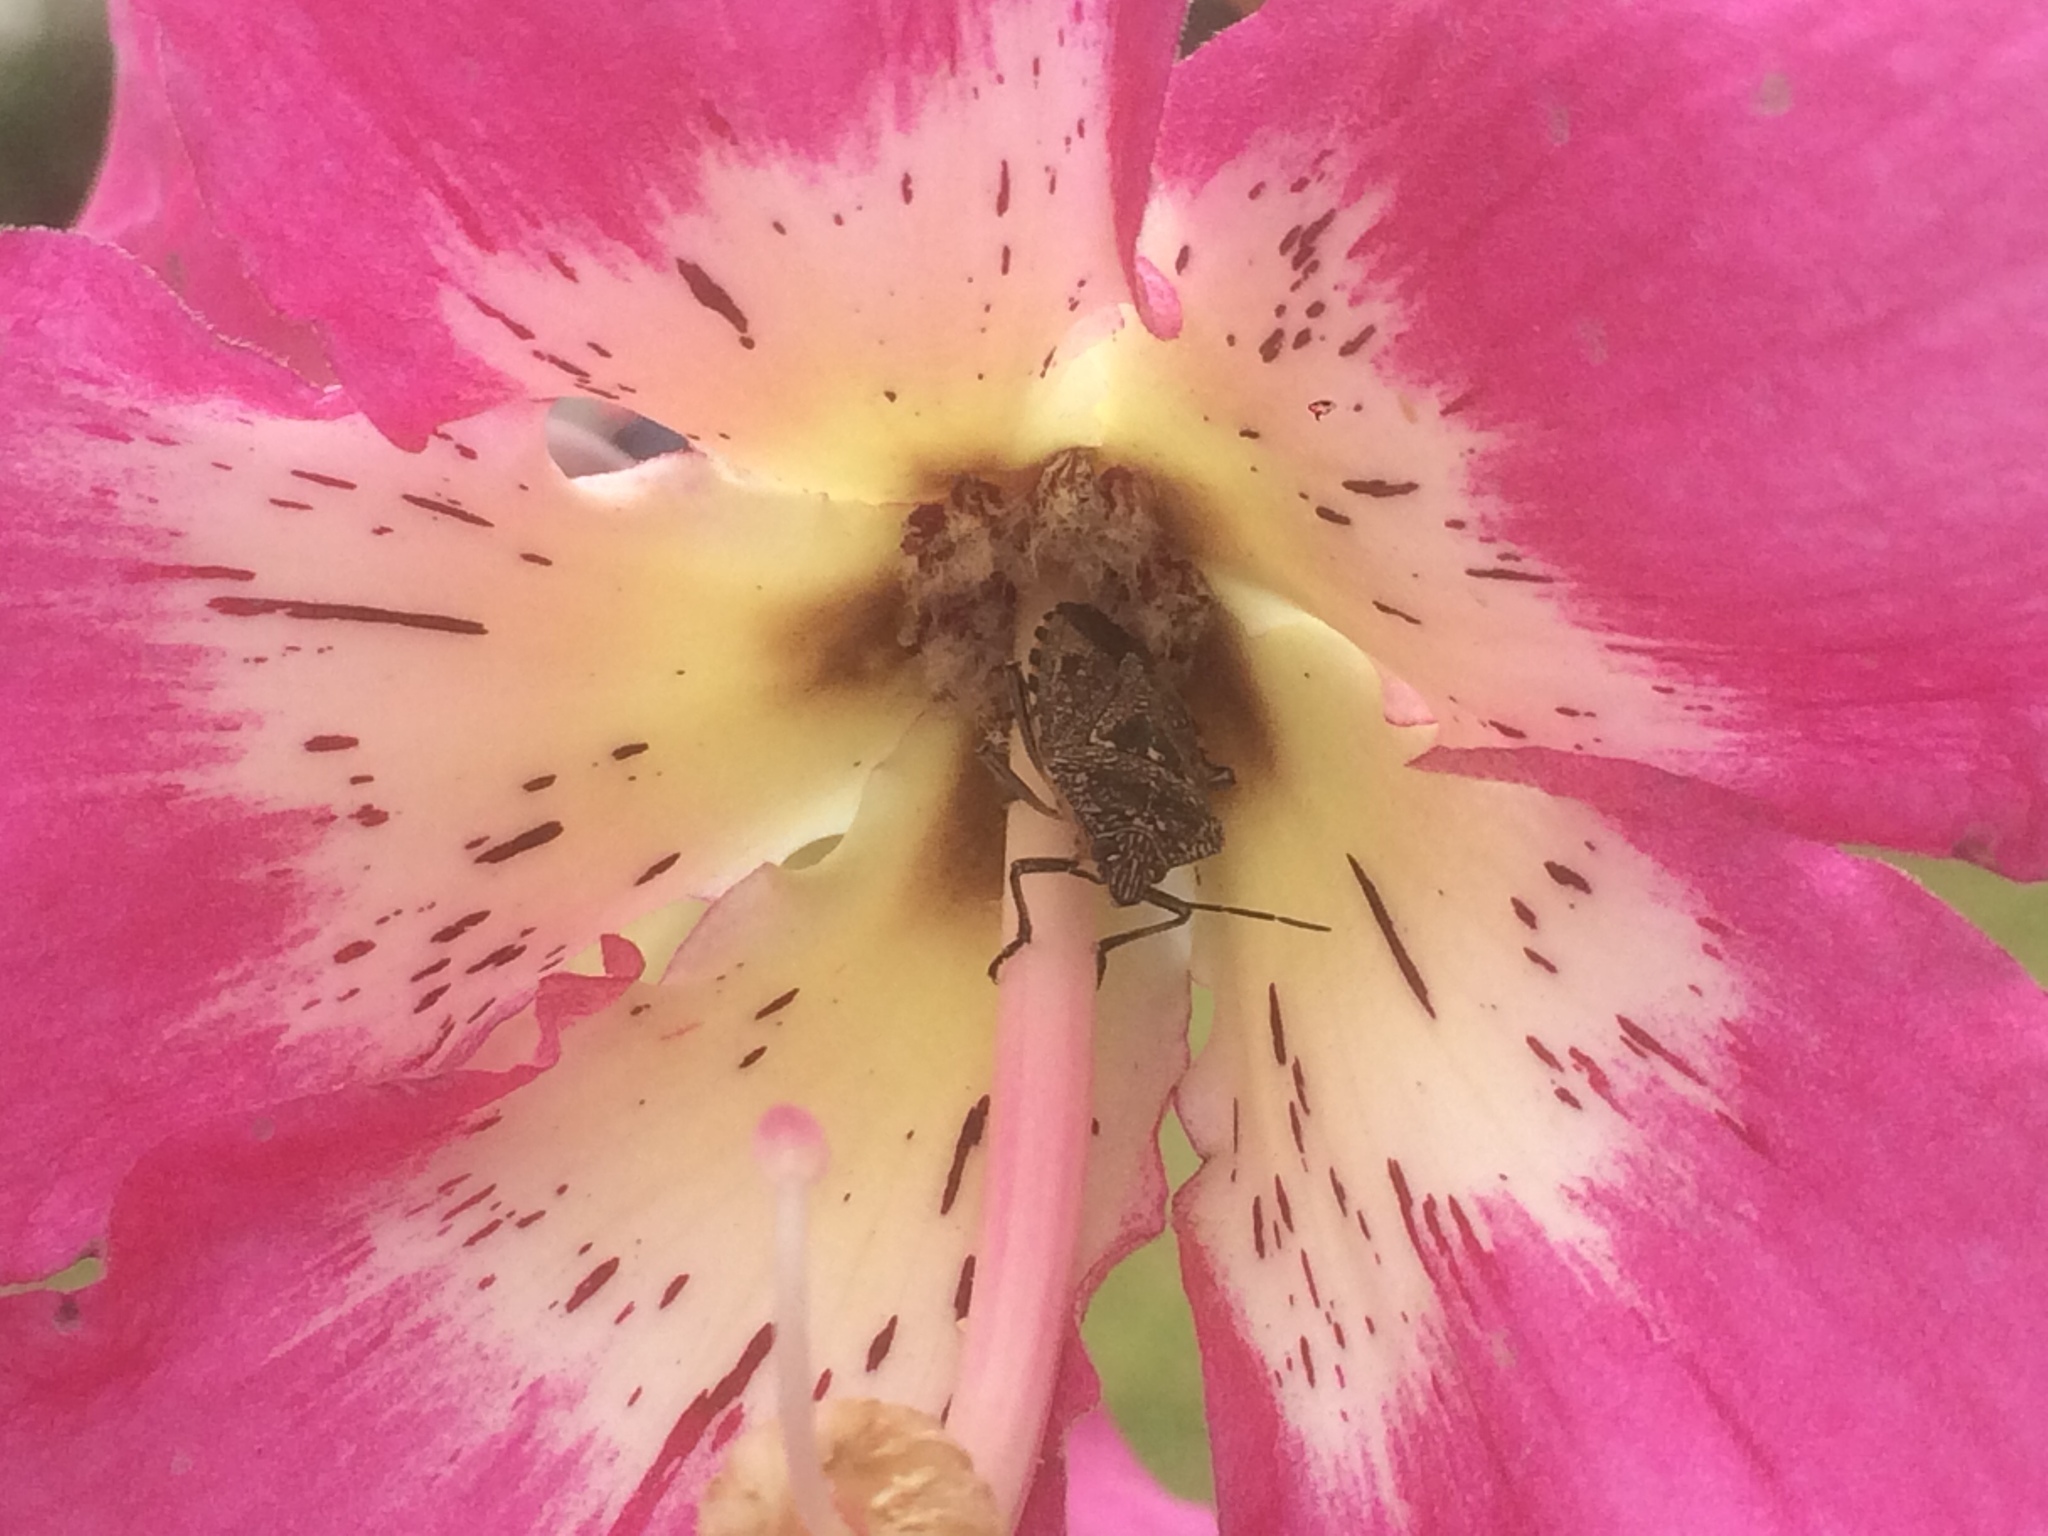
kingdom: Animalia
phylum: Arthropoda
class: Insecta
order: Hemiptera
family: Pentatomidae
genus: Pellaea
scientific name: Pellaea stictica
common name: Stink bug
